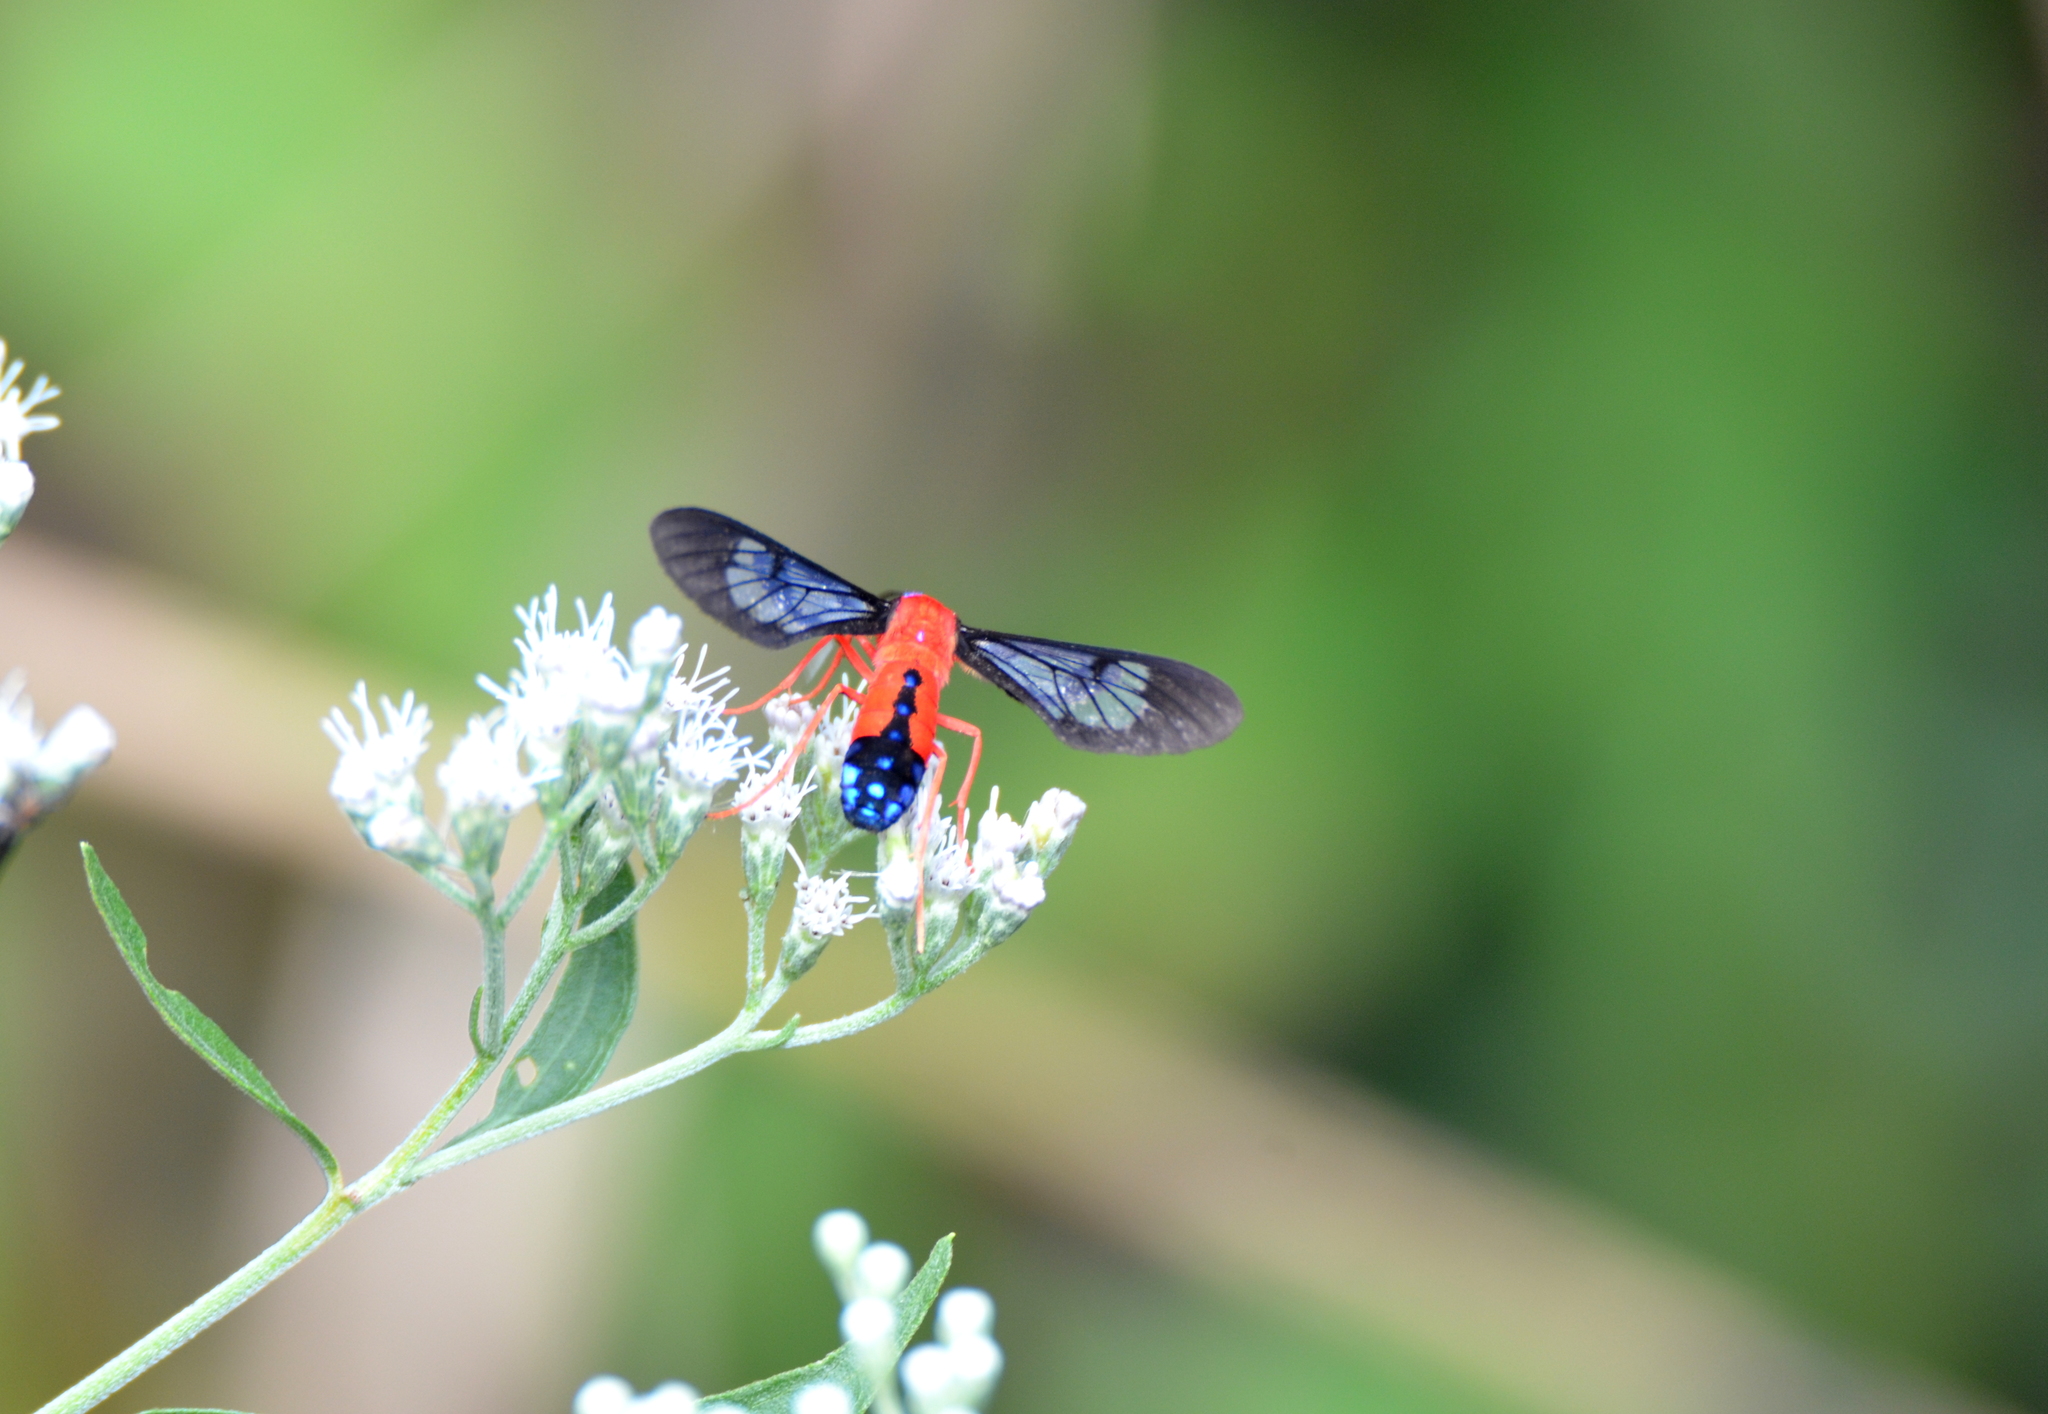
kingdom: Animalia
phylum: Arthropoda
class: Insecta
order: Lepidoptera
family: Erebidae
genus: Cosmosoma
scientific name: Cosmosoma myrodora
